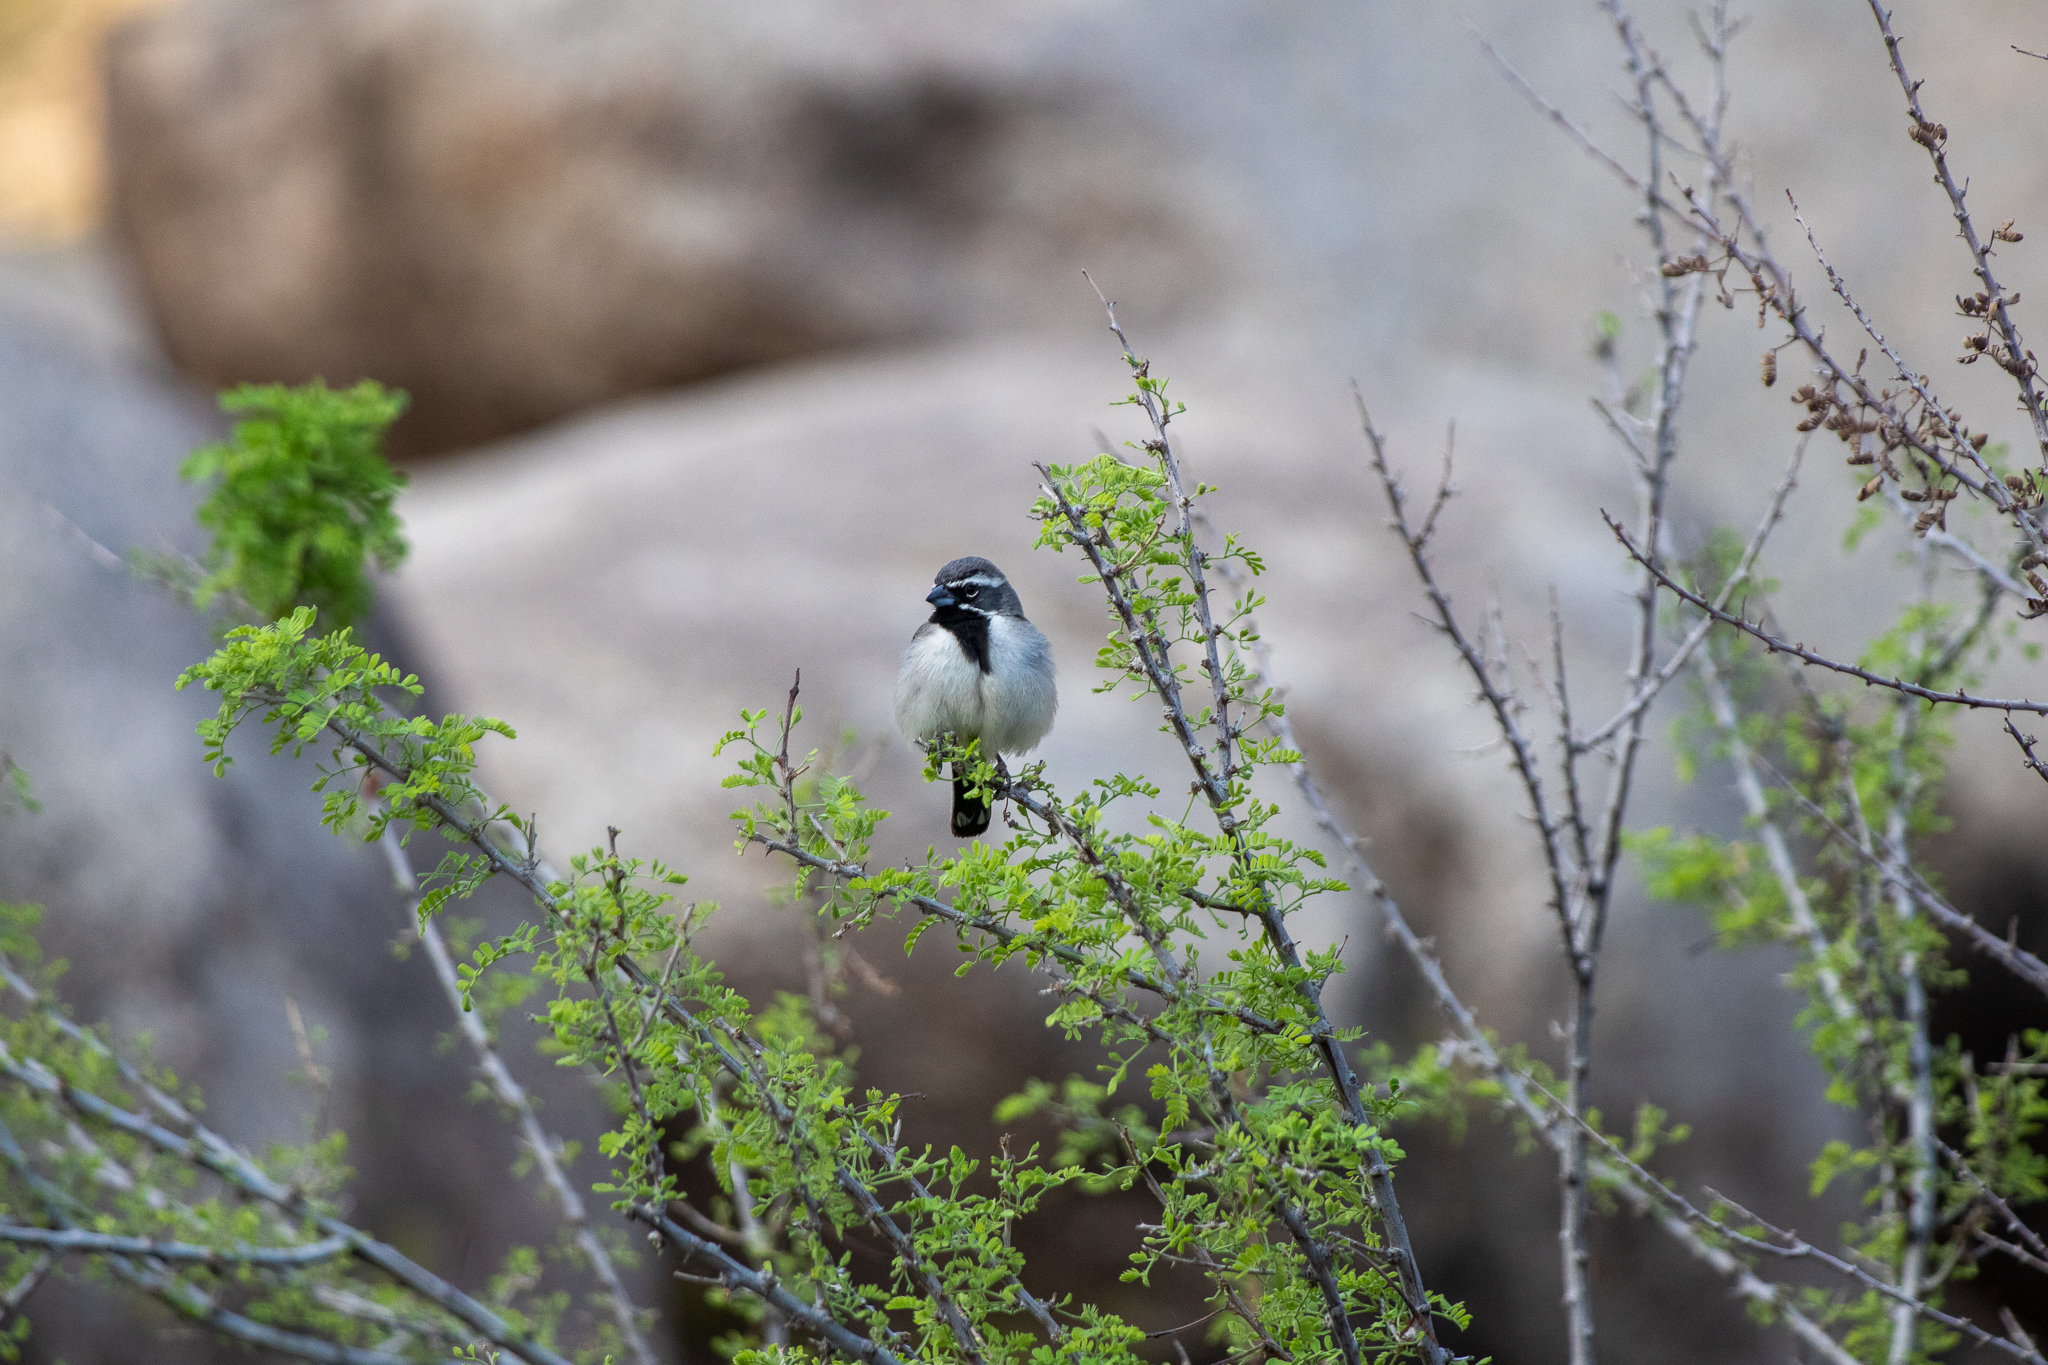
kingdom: Animalia
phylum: Chordata
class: Aves
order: Passeriformes
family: Passerellidae
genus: Amphispiza
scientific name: Amphispiza bilineata
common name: Black-throated sparrow
